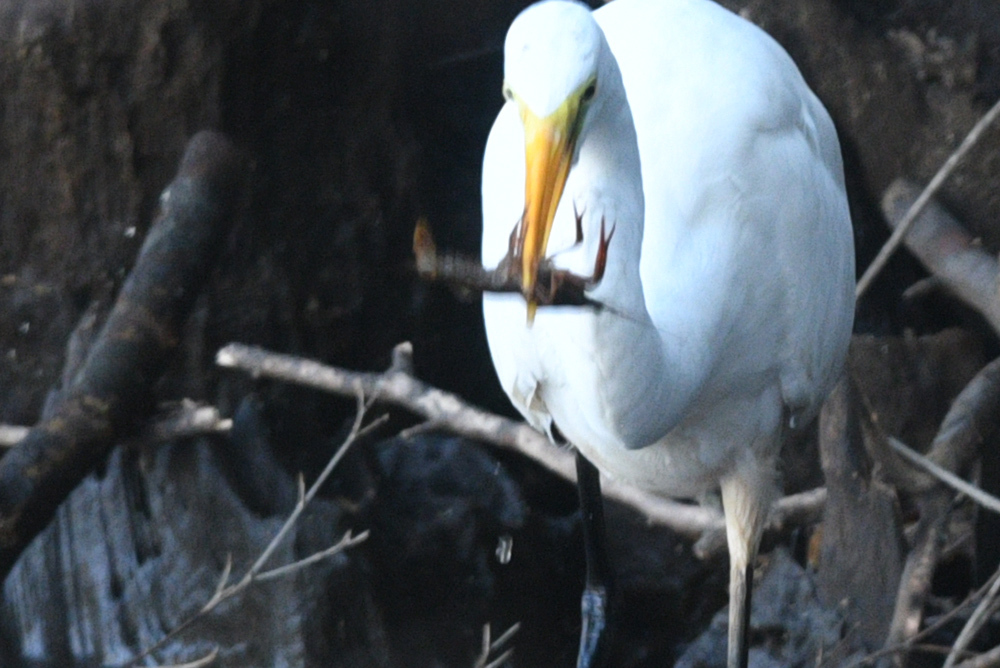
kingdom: Animalia
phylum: Arthropoda
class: Malacostraca
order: Decapoda
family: Cambaridae
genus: Procambarus
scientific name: Procambarus clarkii
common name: Red swamp crayfish
